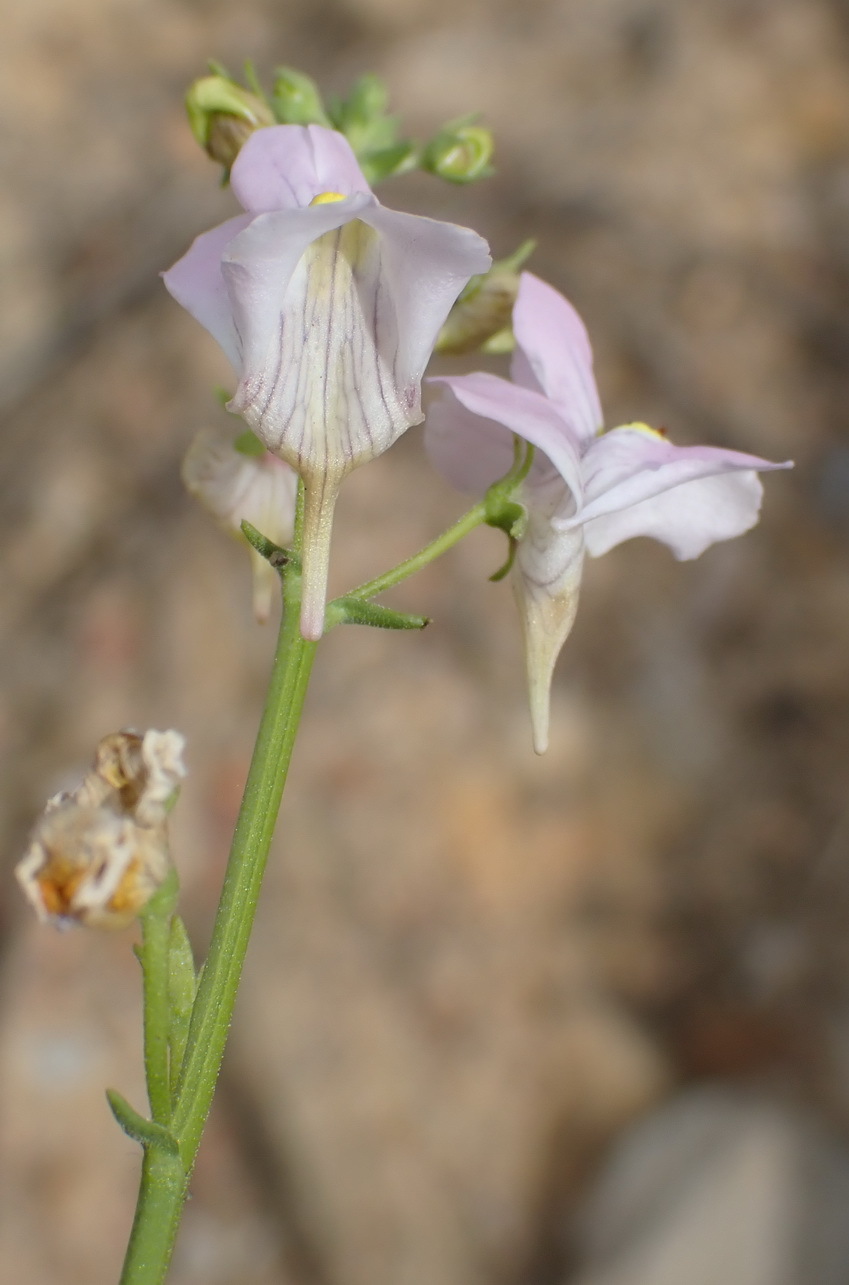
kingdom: Plantae
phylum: Tracheophyta
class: Magnoliopsida
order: Lamiales
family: Scrophulariaceae
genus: Nemesia
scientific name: Nemesia fruticans
